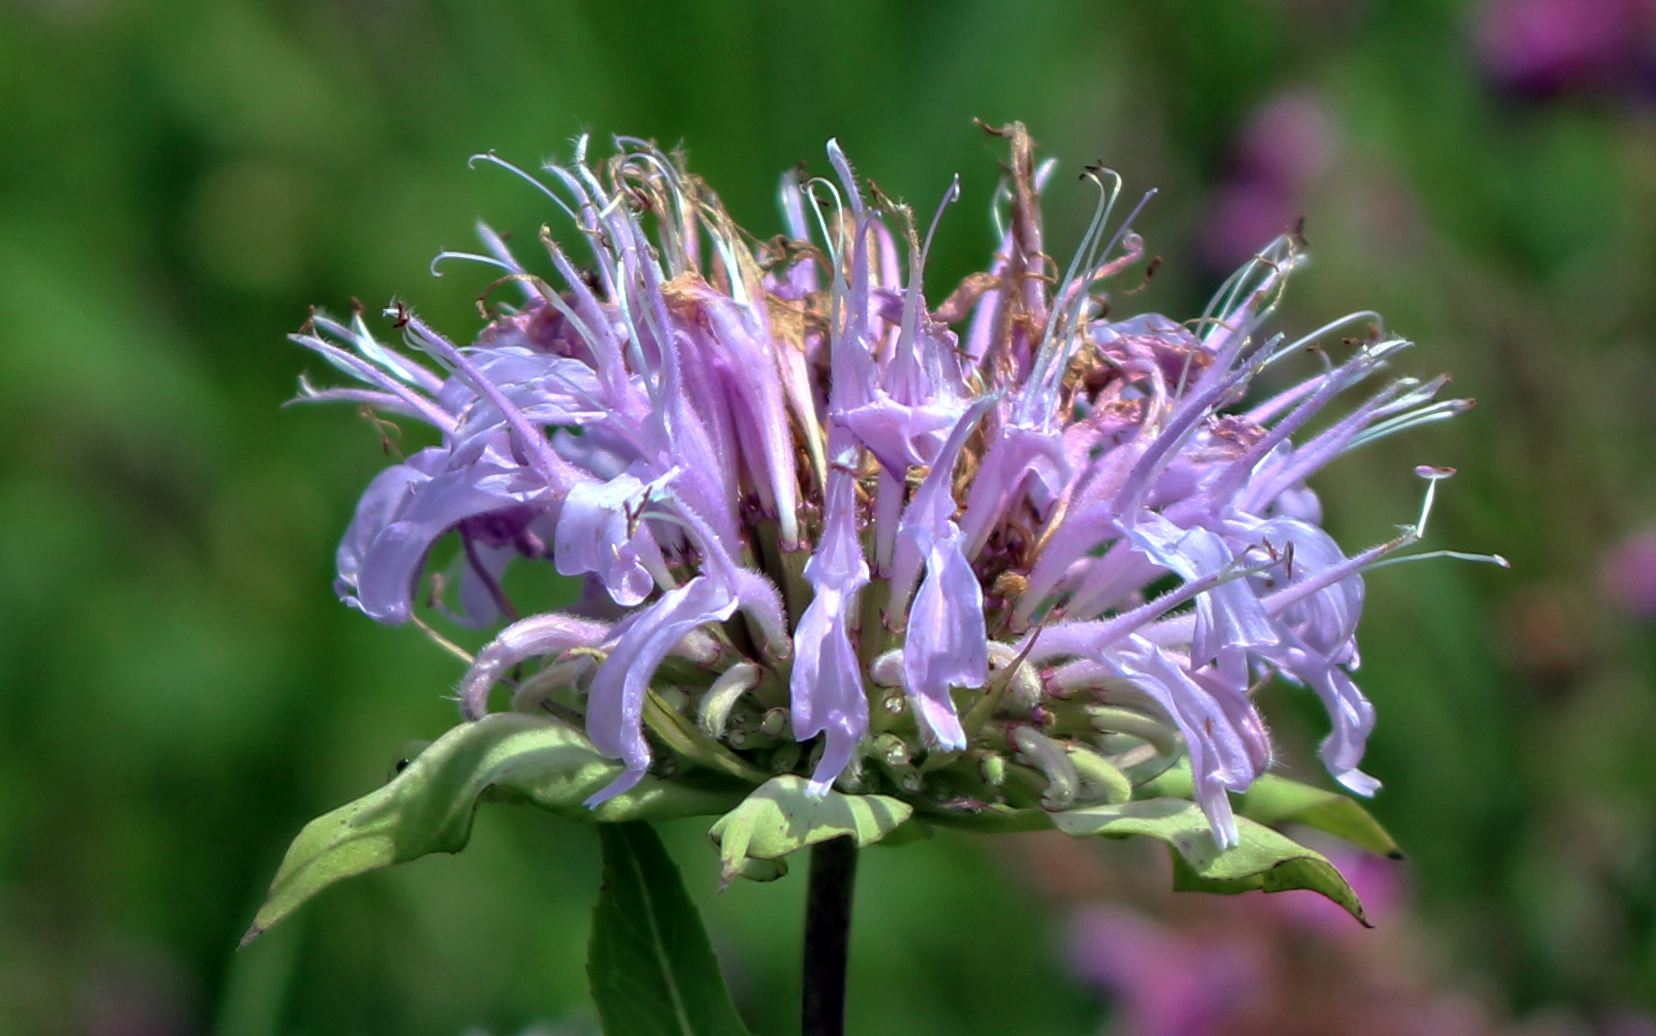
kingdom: Plantae
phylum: Tracheophyta
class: Magnoliopsida
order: Lamiales
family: Lamiaceae
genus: Monarda
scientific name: Monarda fistulosa
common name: Purple beebalm
